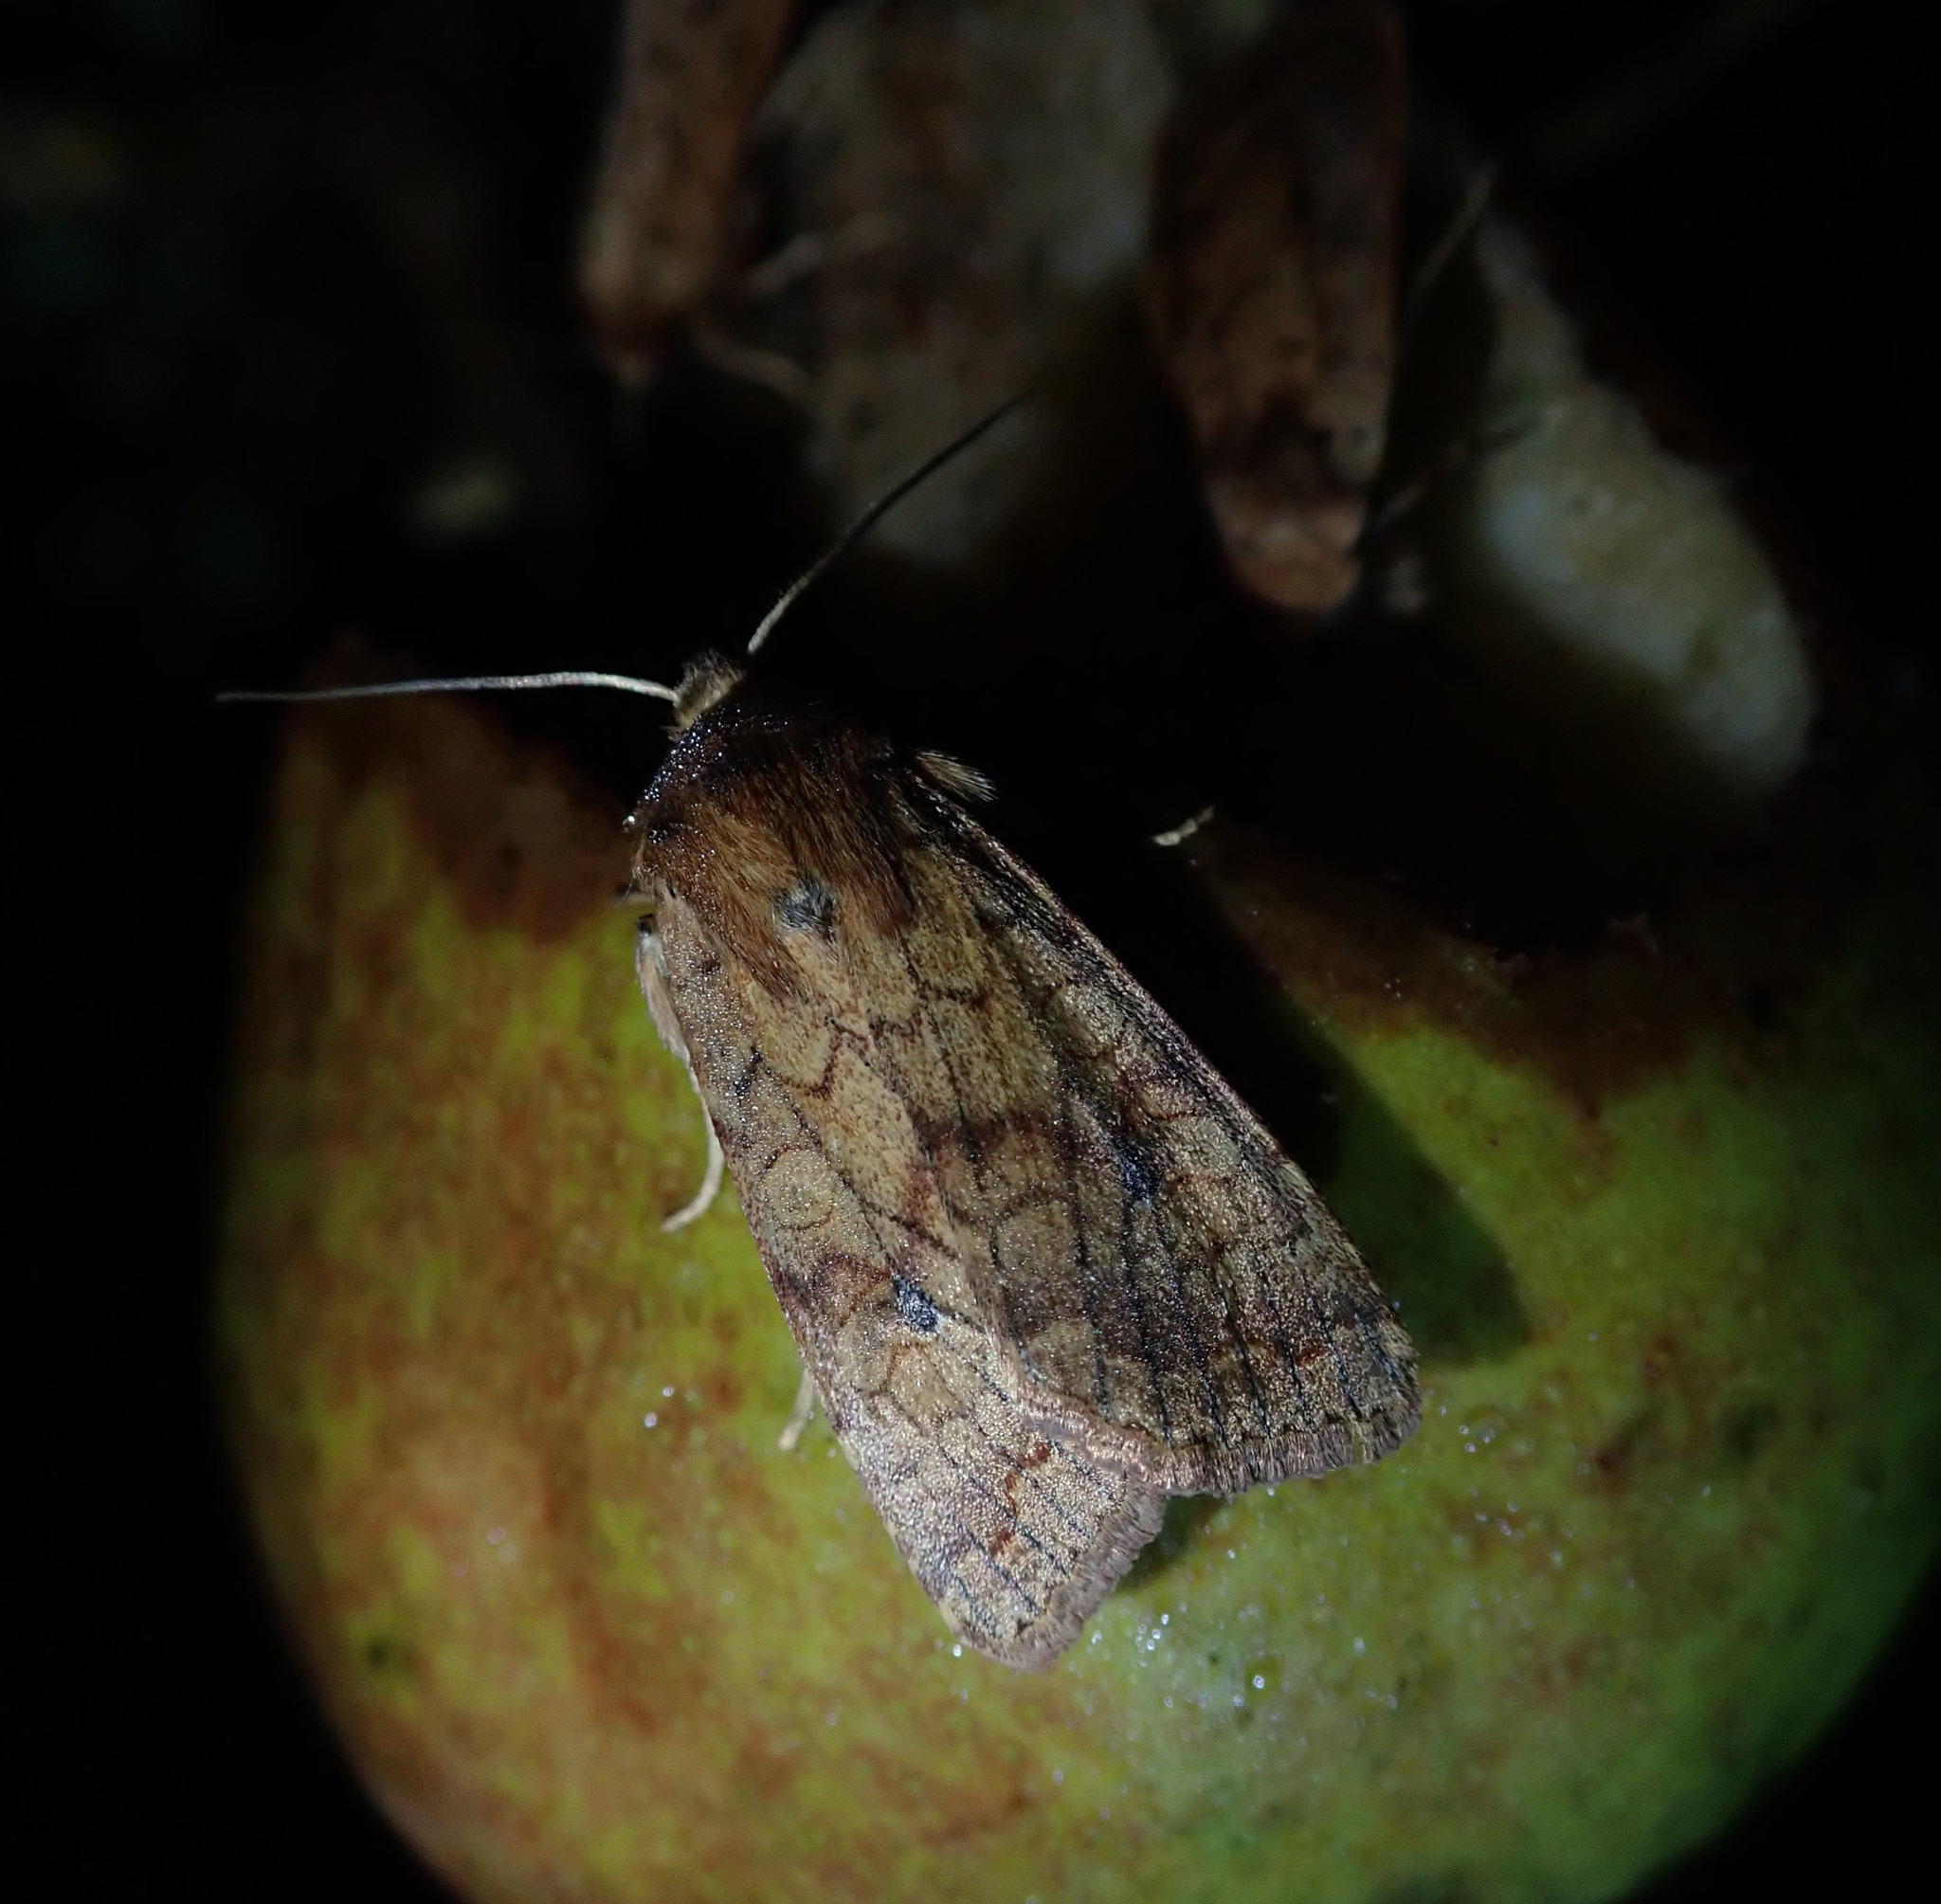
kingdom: Animalia
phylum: Arthropoda
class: Insecta
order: Lepidoptera
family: Noctuidae
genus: Sunira
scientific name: Sunira circellaris
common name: Brick
